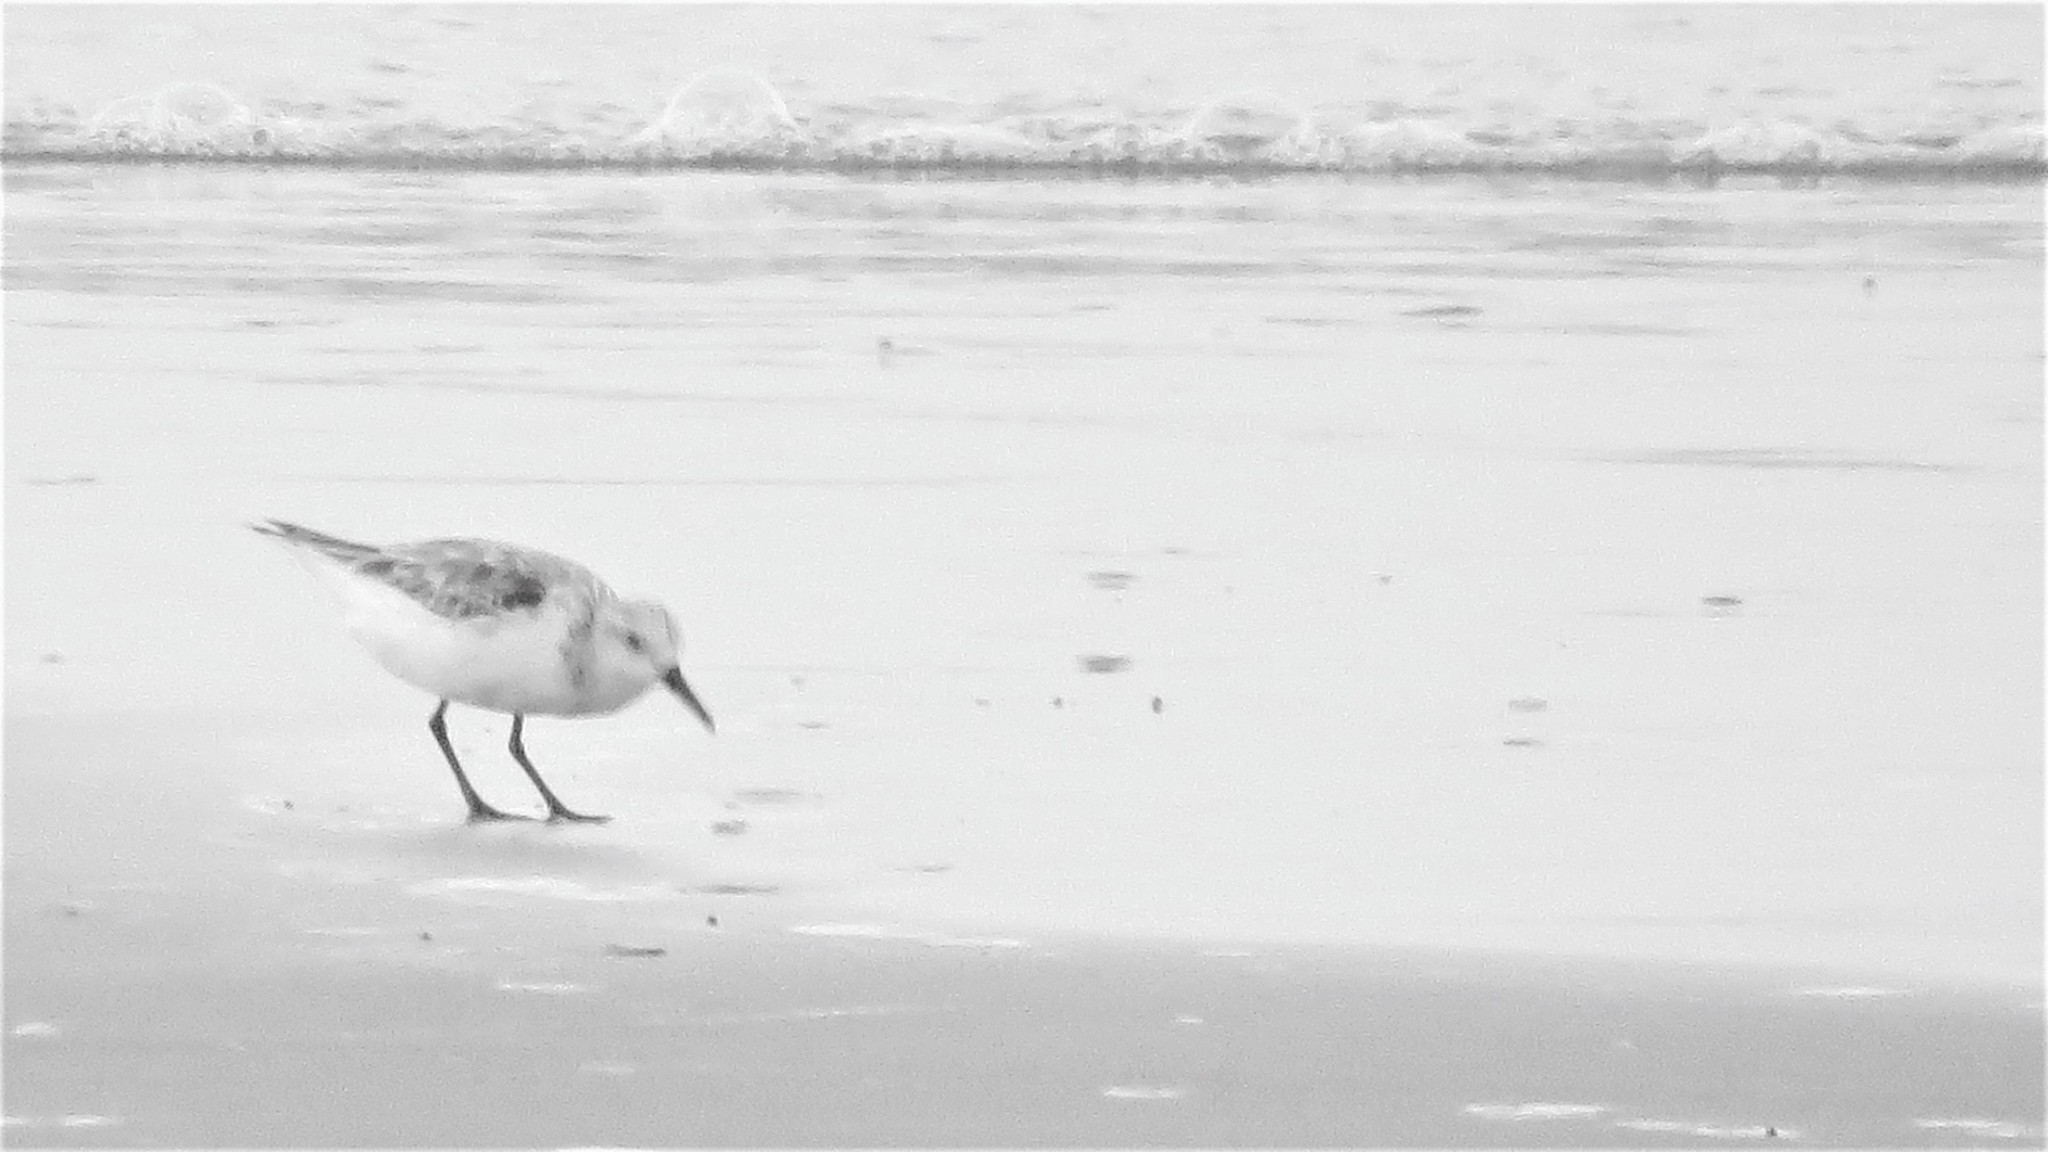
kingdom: Animalia
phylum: Chordata
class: Aves
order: Charadriiformes
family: Scolopacidae
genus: Calidris
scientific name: Calidris alba
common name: Sanderling
